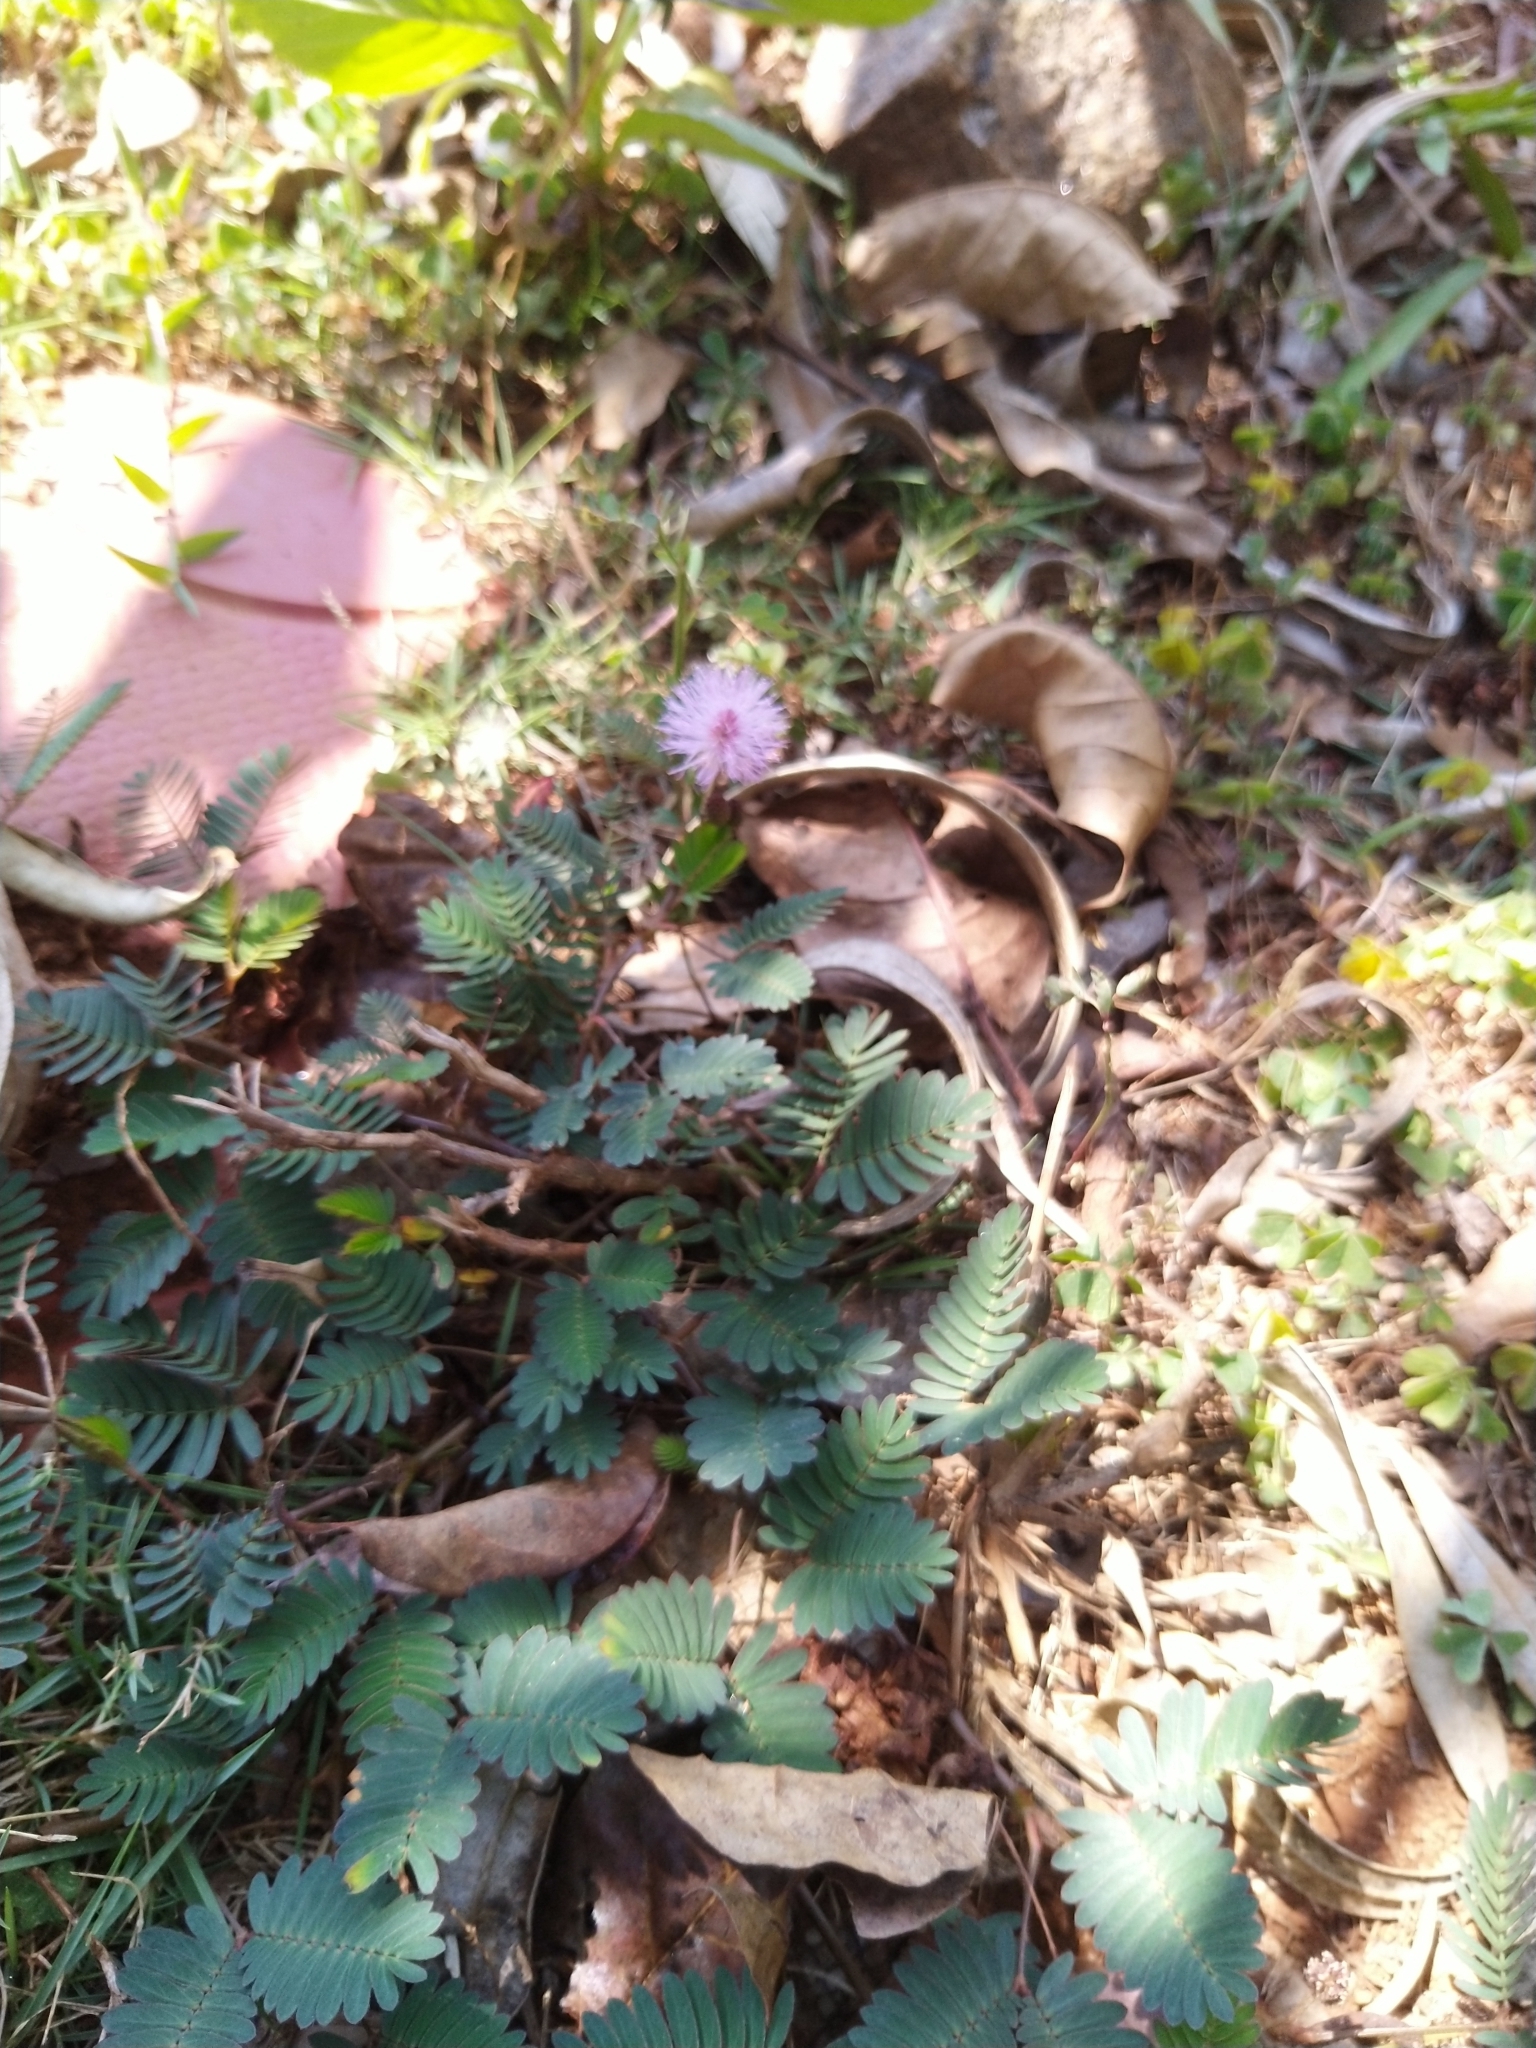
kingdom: Plantae
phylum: Tracheophyta
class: Magnoliopsida
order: Fabales
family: Fabaceae
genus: Mimosa
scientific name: Mimosa pudica
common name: Sensitive plant
